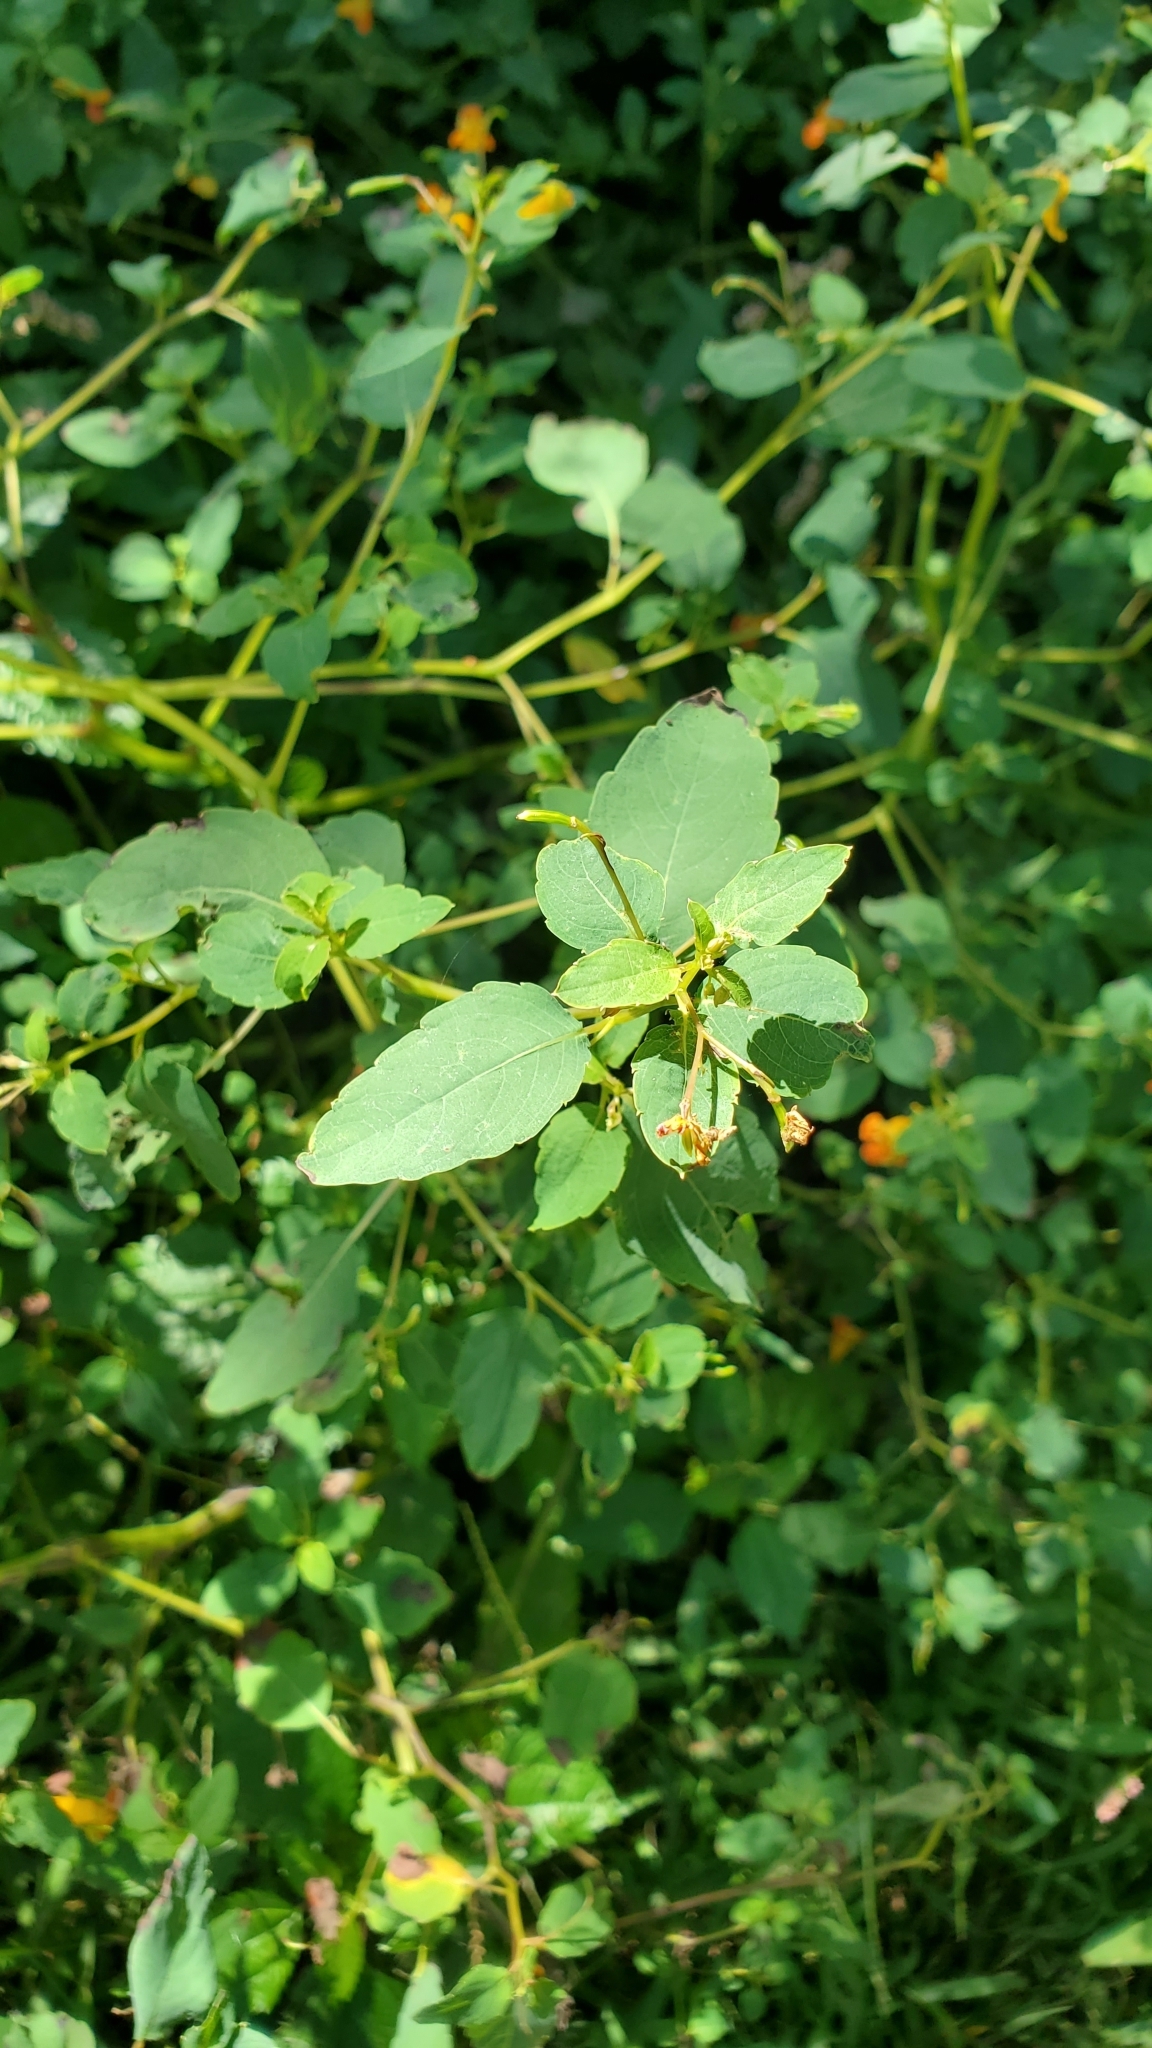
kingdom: Plantae
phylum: Tracheophyta
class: Magnoliopsida
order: Ericales
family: Balsaminaceae
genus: Impatiens
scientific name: Impatiens capensis
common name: Orange balsam
